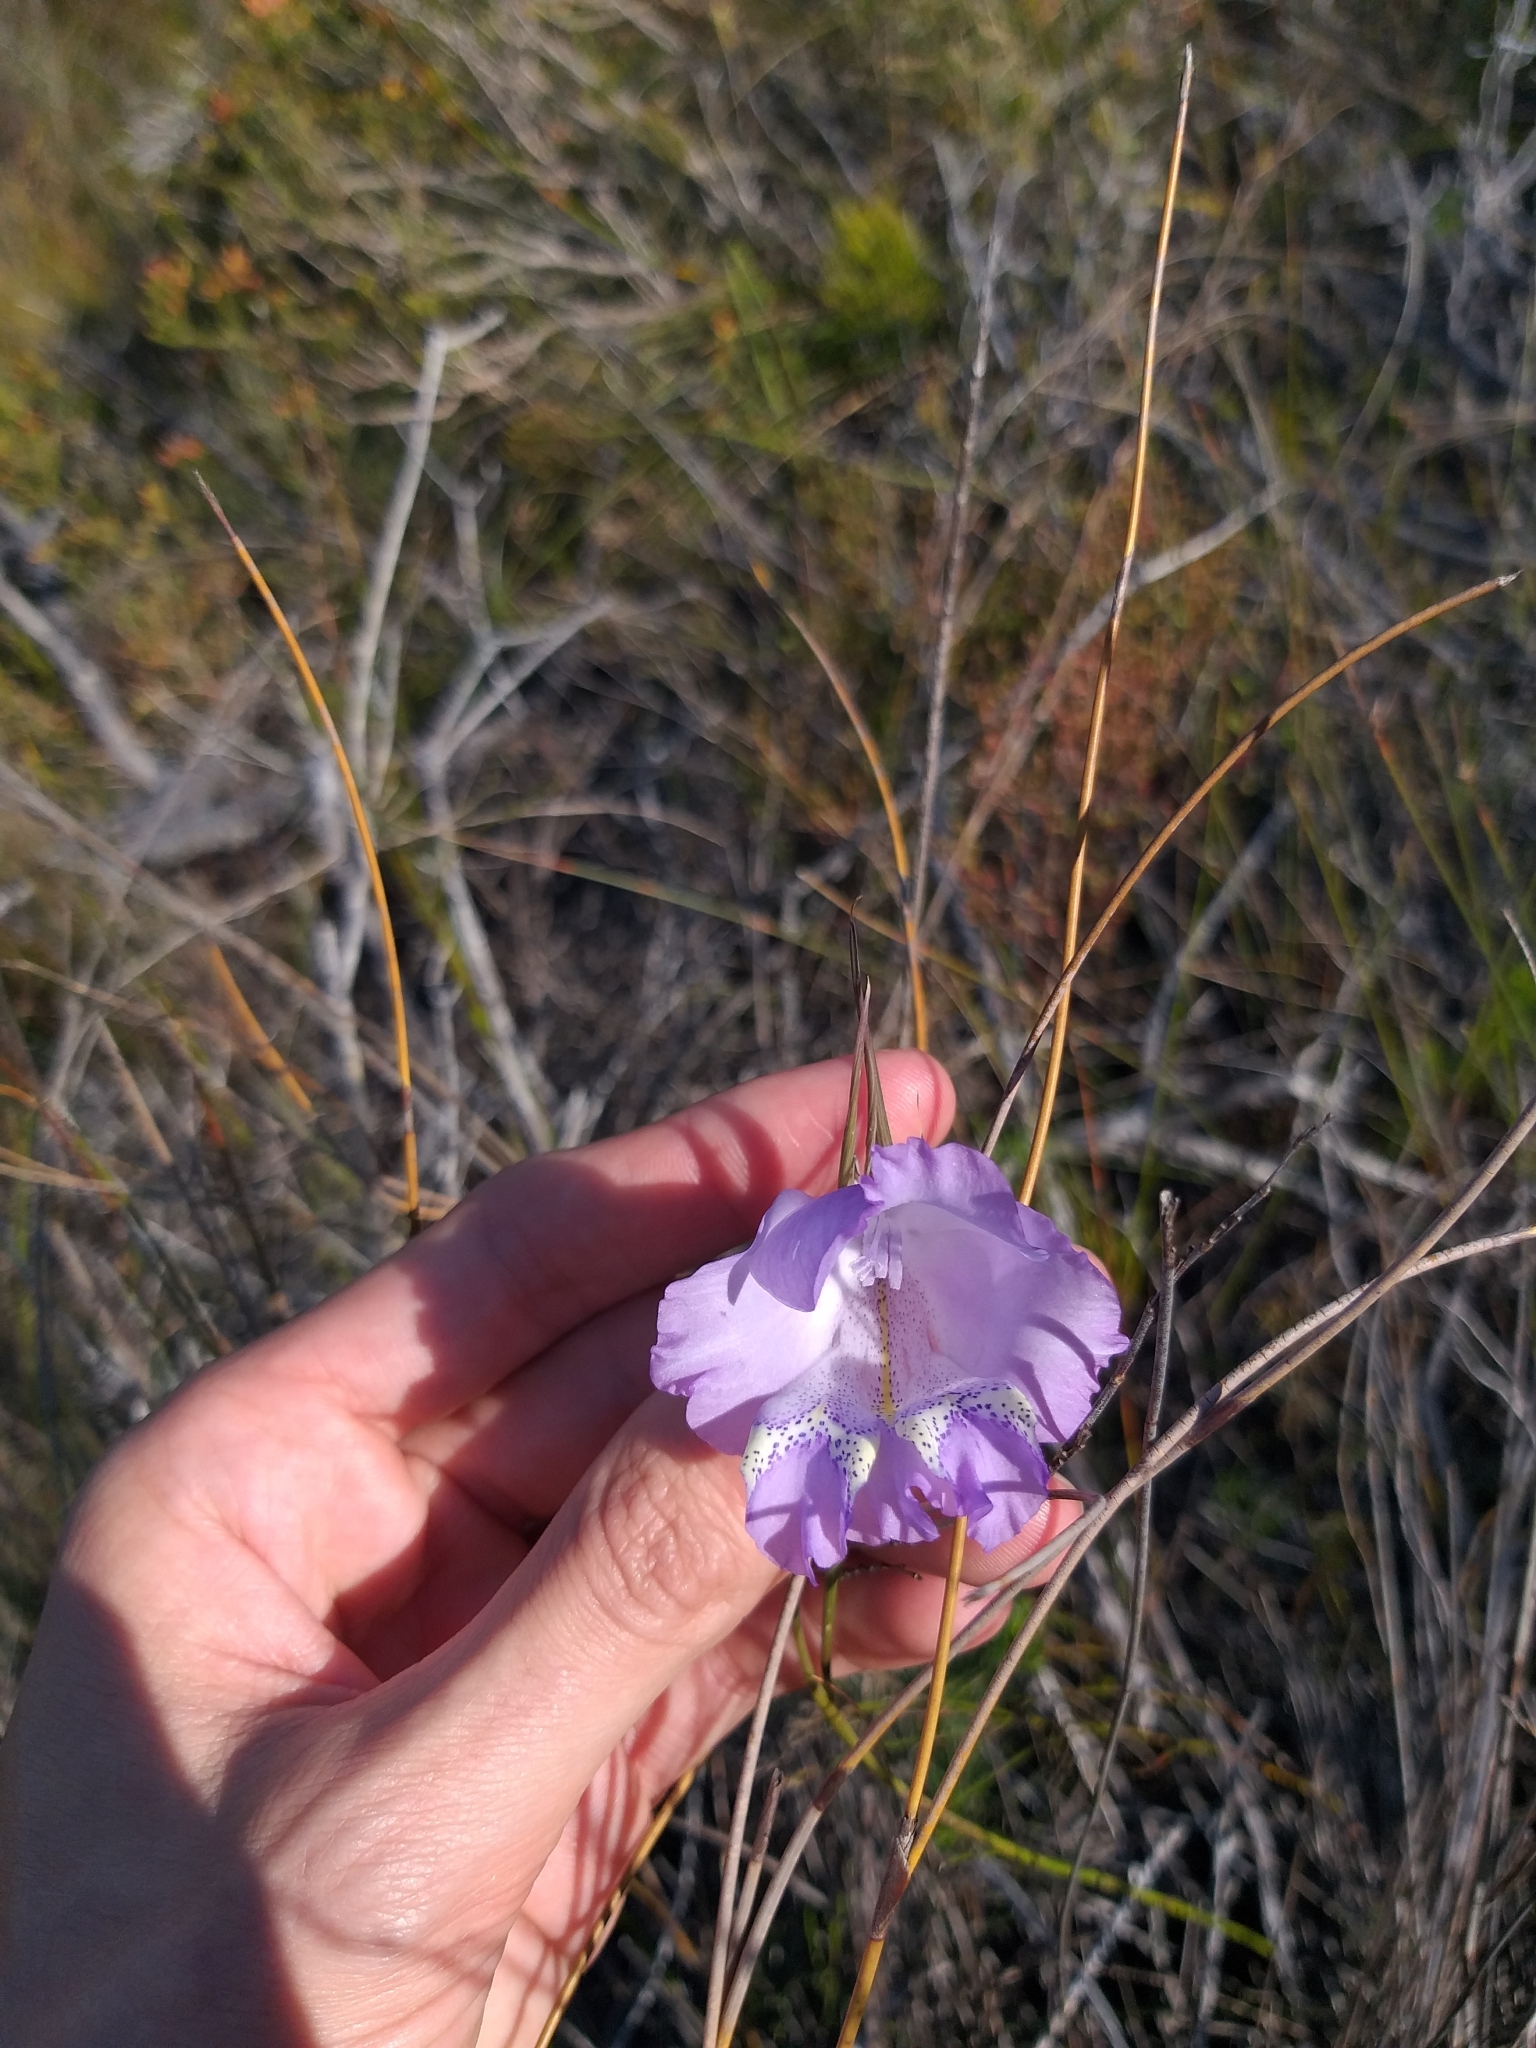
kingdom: Plantae
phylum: Tracheophyta
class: Liliopsida
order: Asparagales
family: Iridaceae
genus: Gladiolus
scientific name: Gladiolus bullatus
